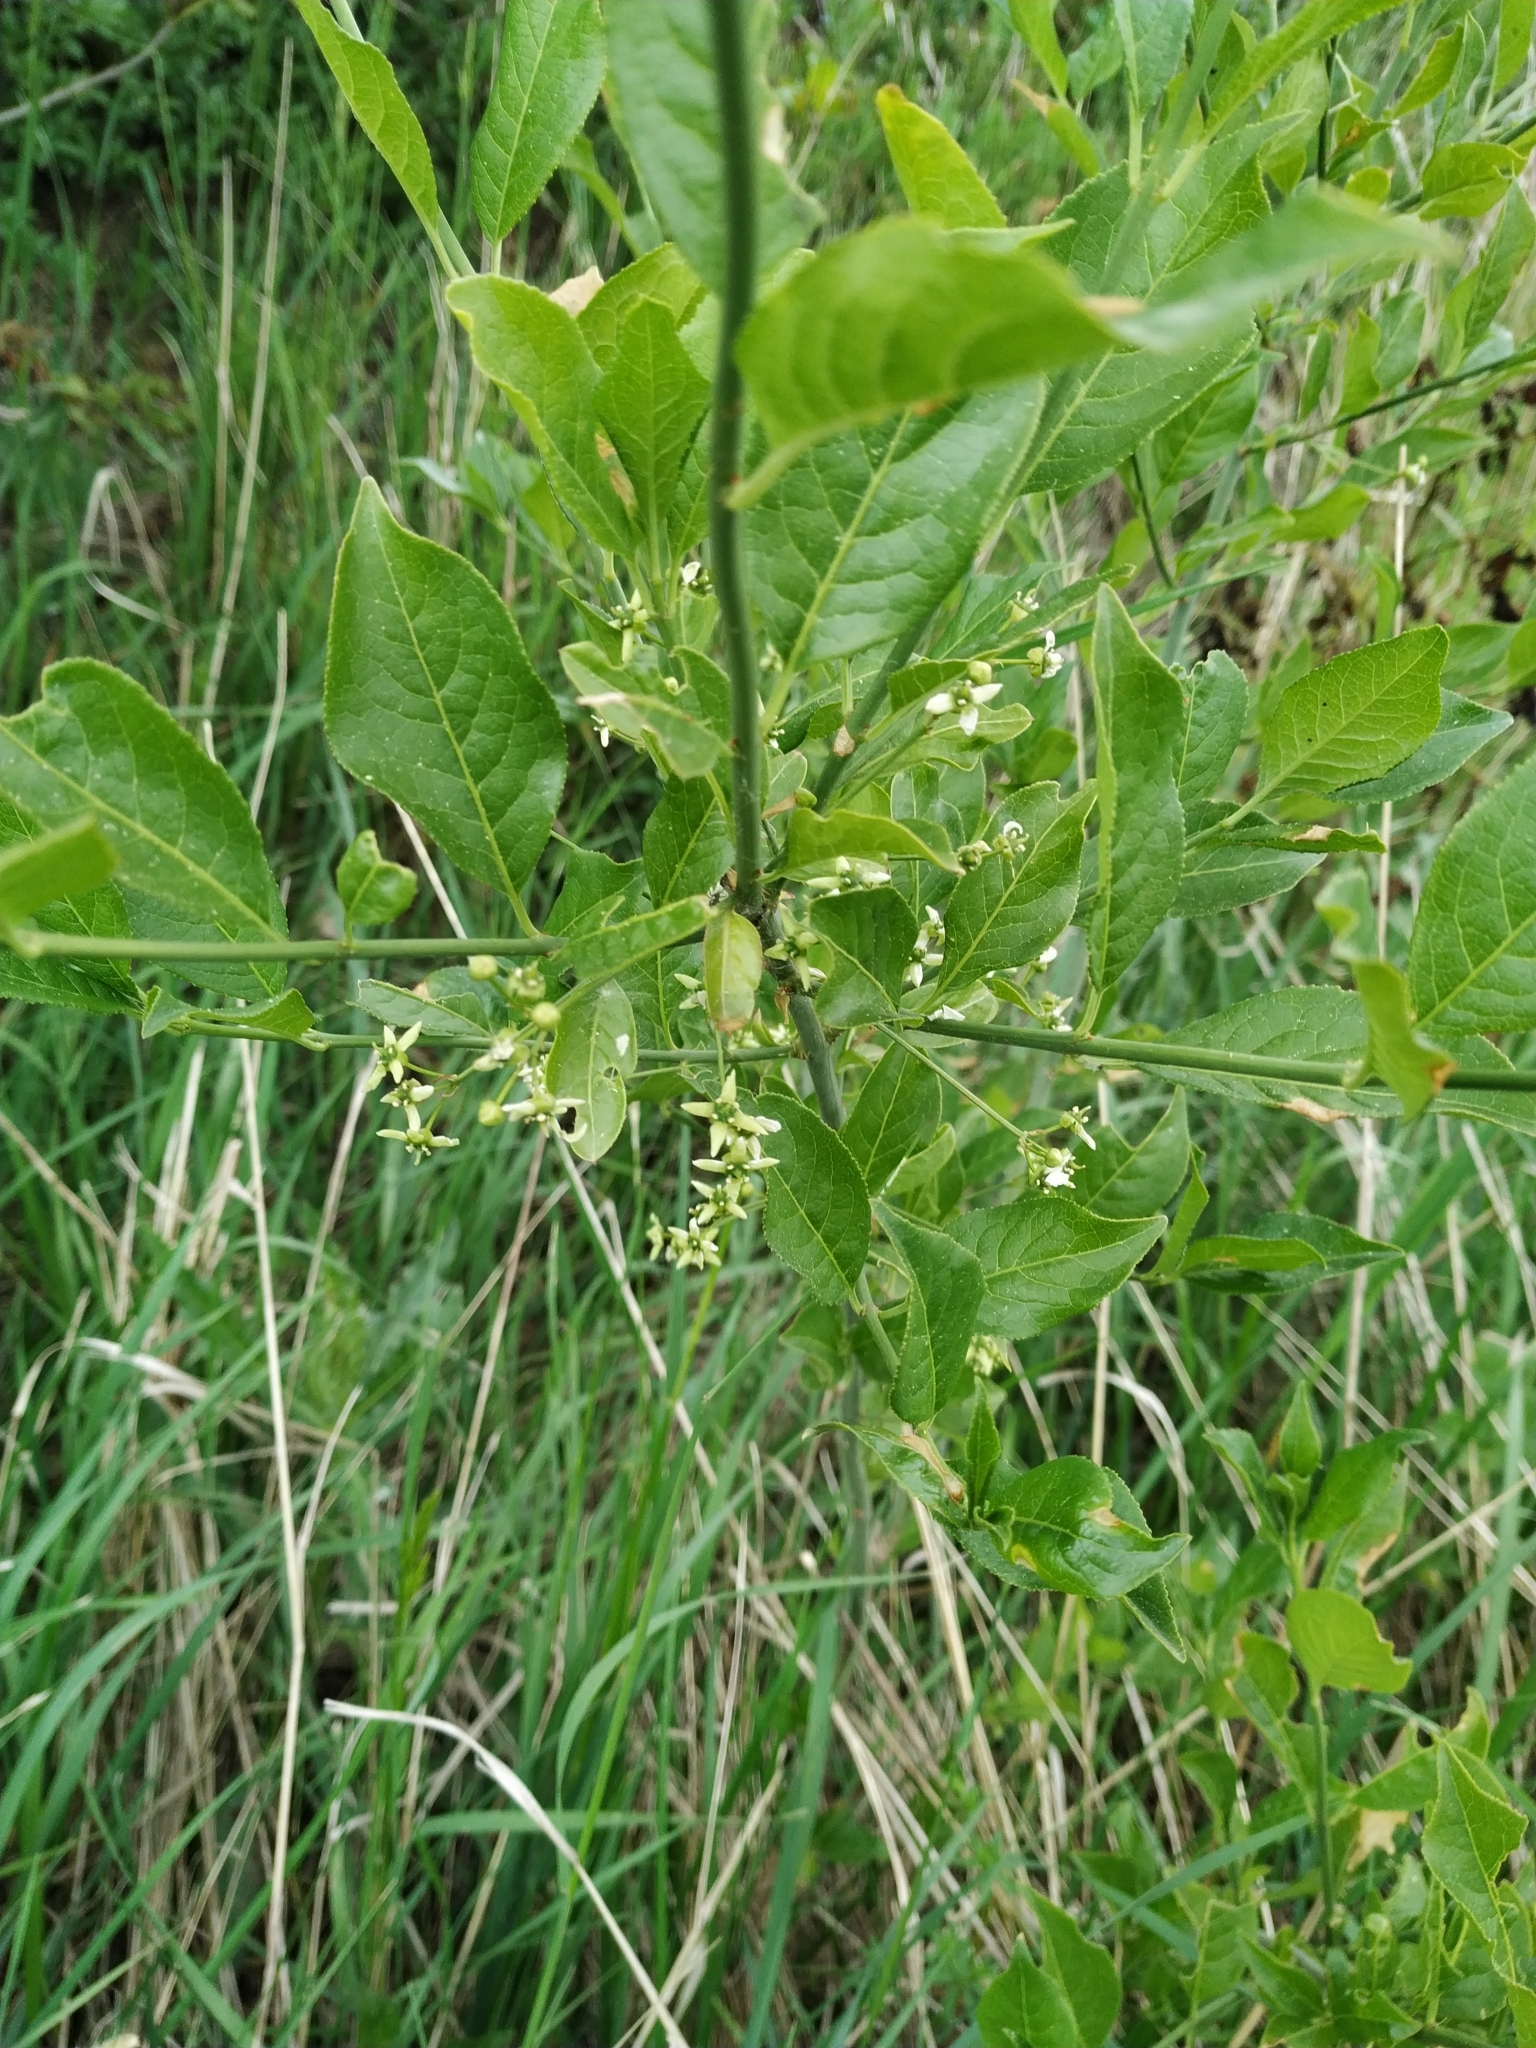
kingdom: Plantae
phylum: Tracheophyta
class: Magnoliopsida
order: Celastrales
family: Celastraceae
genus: Euonymus
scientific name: Euonymus europaeus
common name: Spindle
